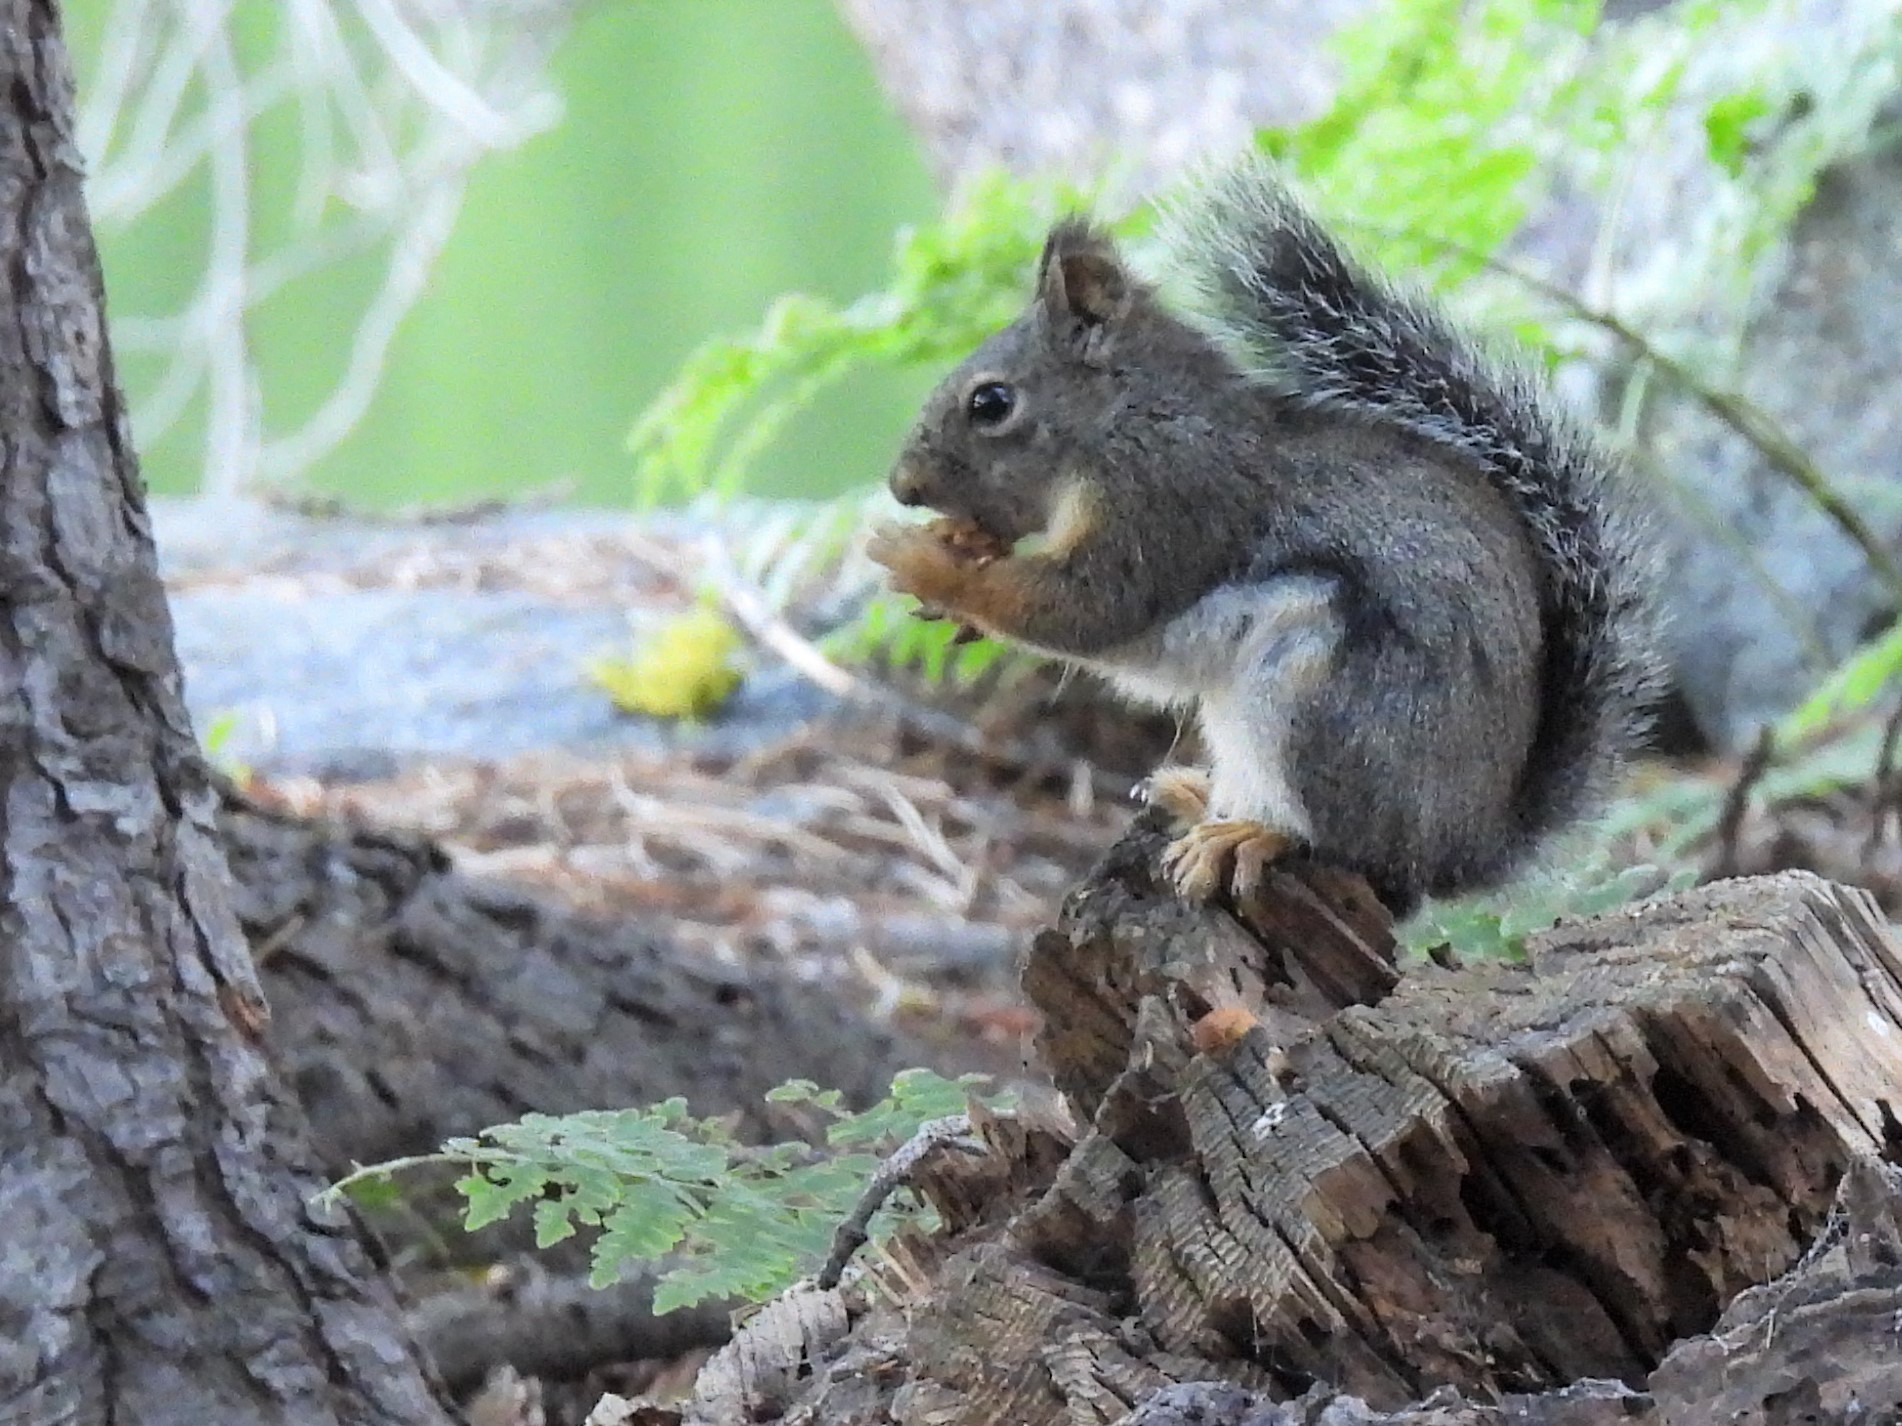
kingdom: Animalia
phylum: Chordata
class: Mammalia
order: Rodentia
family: Sciuridae
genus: Tamiasciurus
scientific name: Tamiasciurus douglasii
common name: Douglas's squirrel
